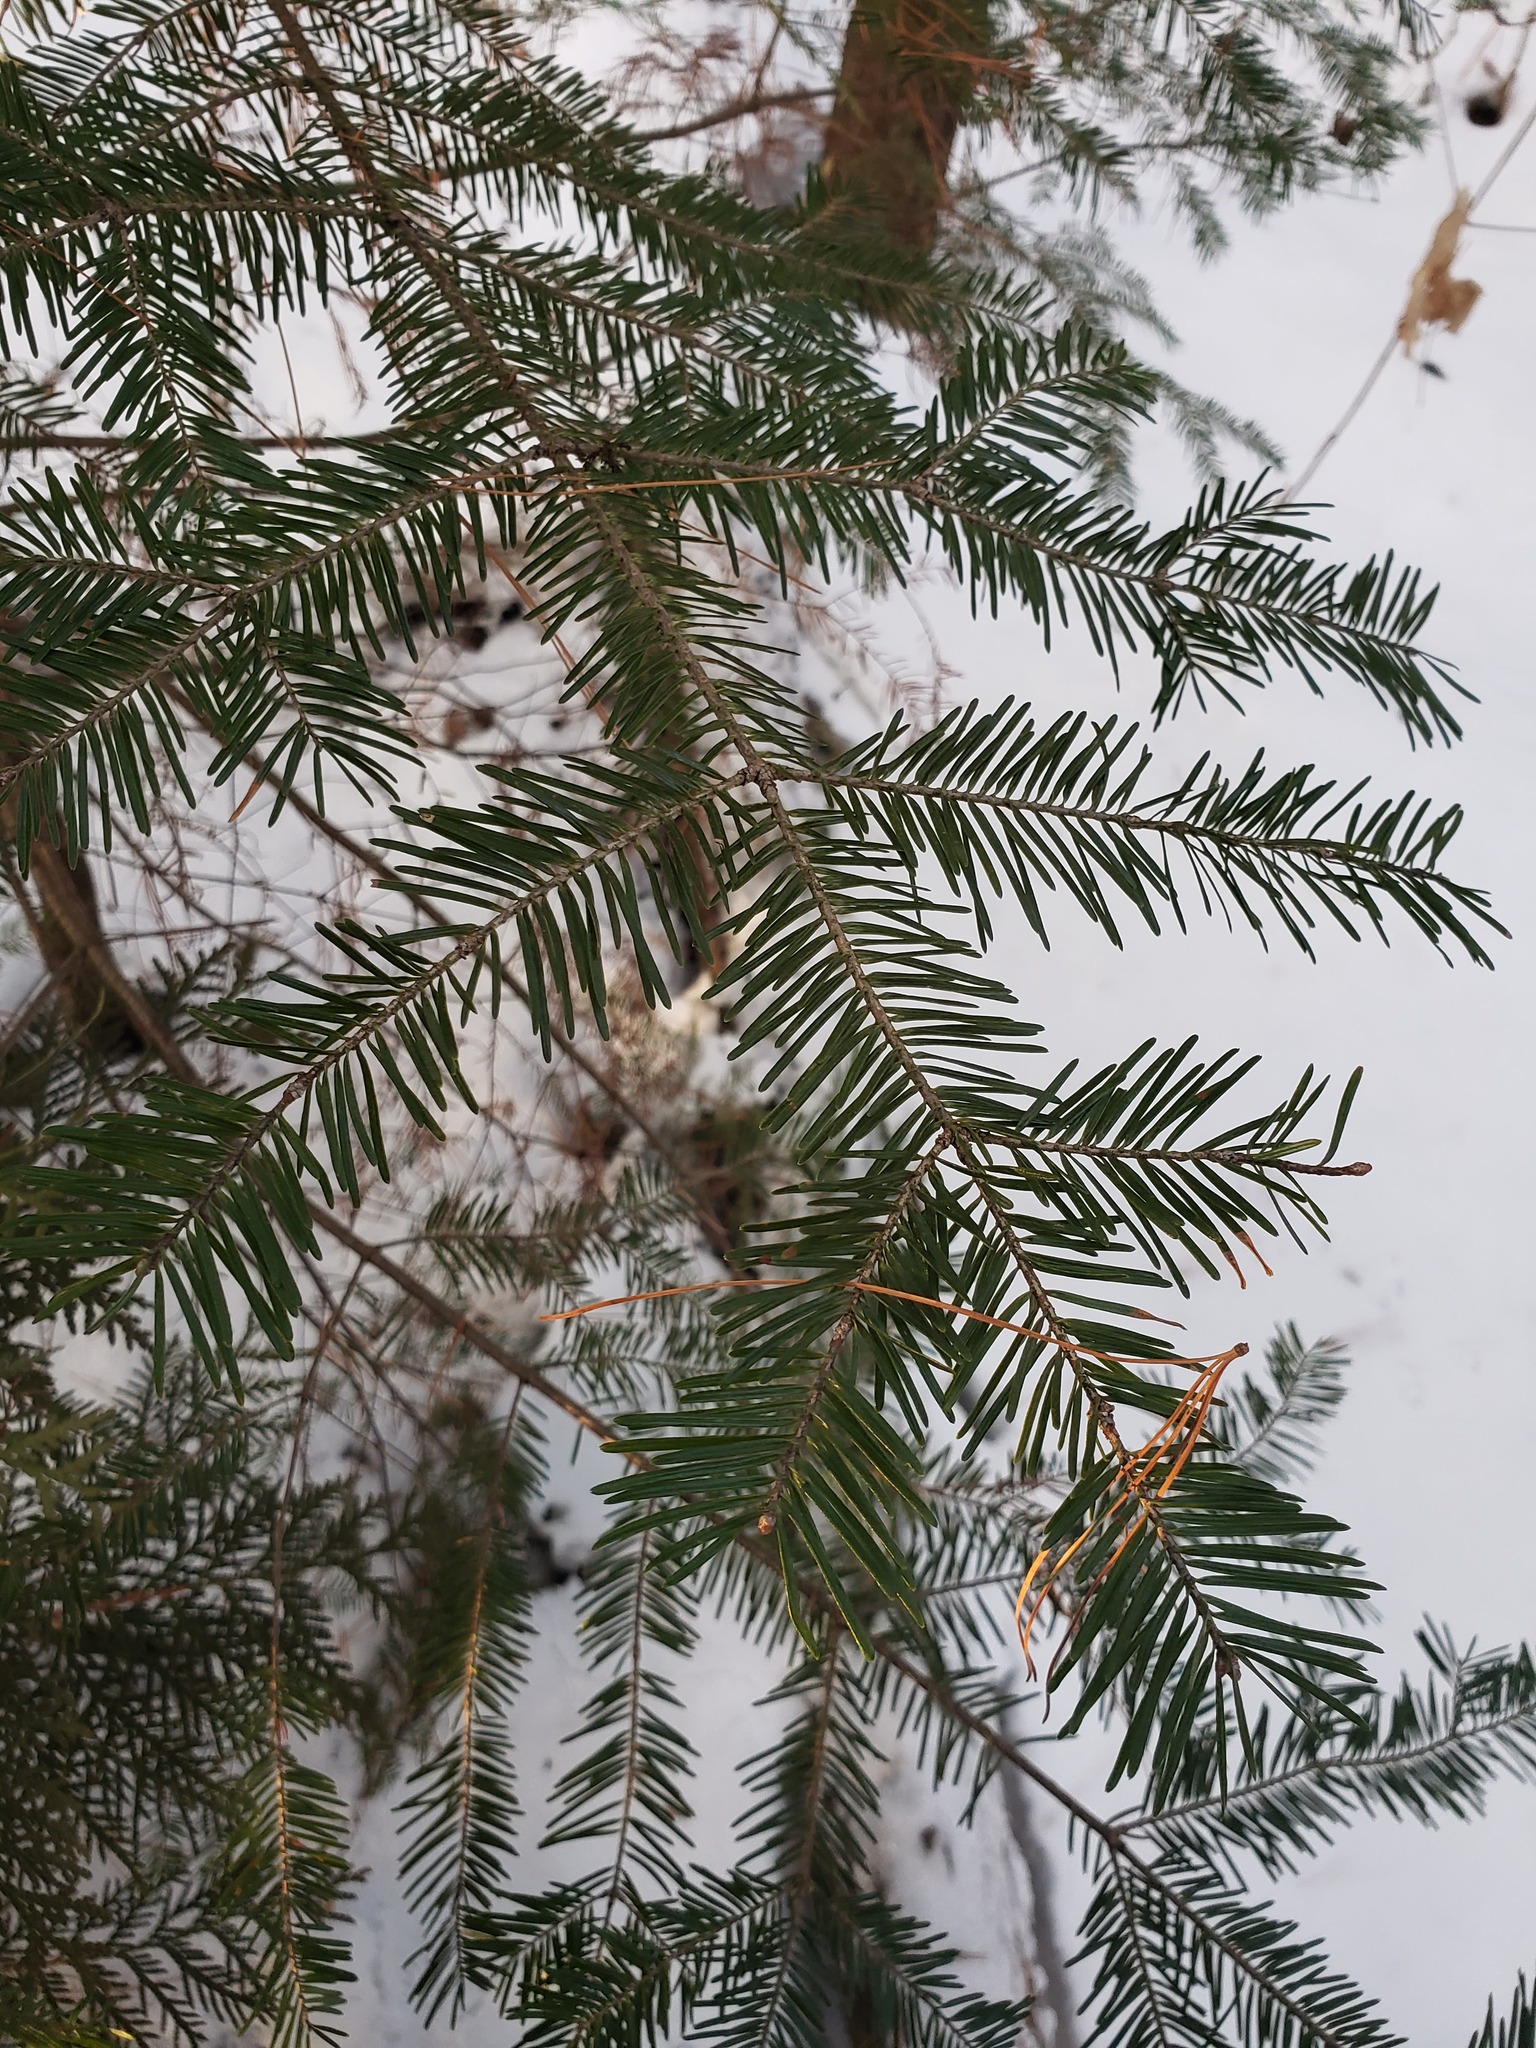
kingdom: Plantae
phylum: Tracheophyta
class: Pinopsida
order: Pinales
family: Pinaceae
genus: Abies
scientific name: Abies balsamea
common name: Balsam fir
